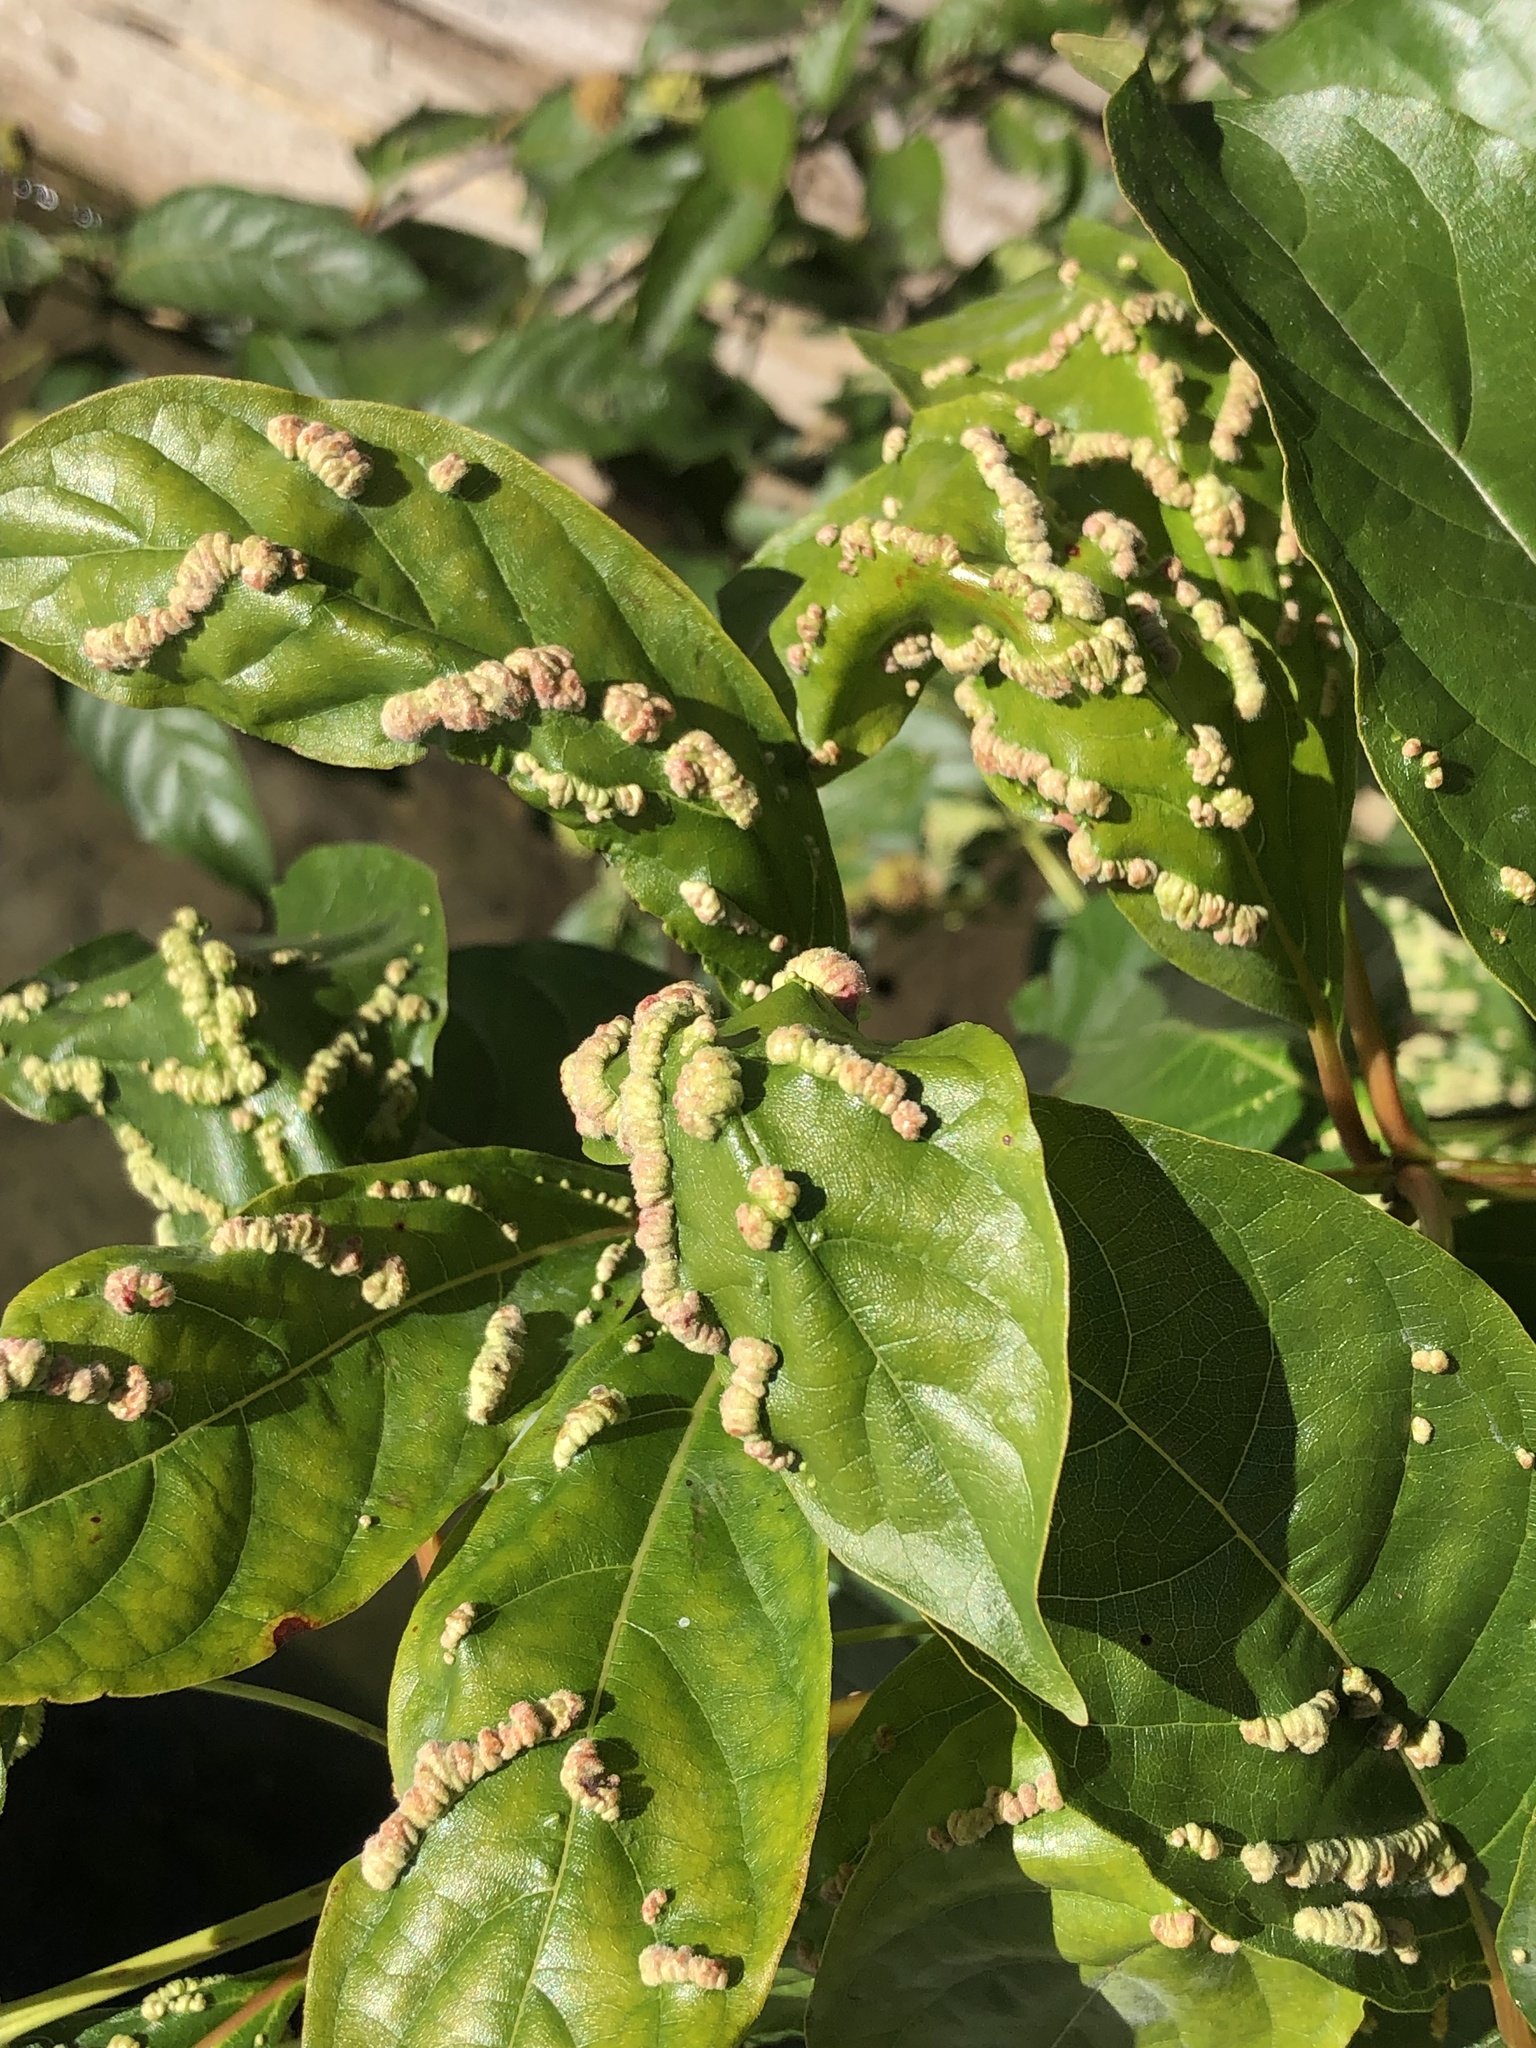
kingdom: Animalia
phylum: Arthropoda
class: Arachnida
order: Trombidiformes
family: Eriophyidae
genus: Aceria
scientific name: Aceria
